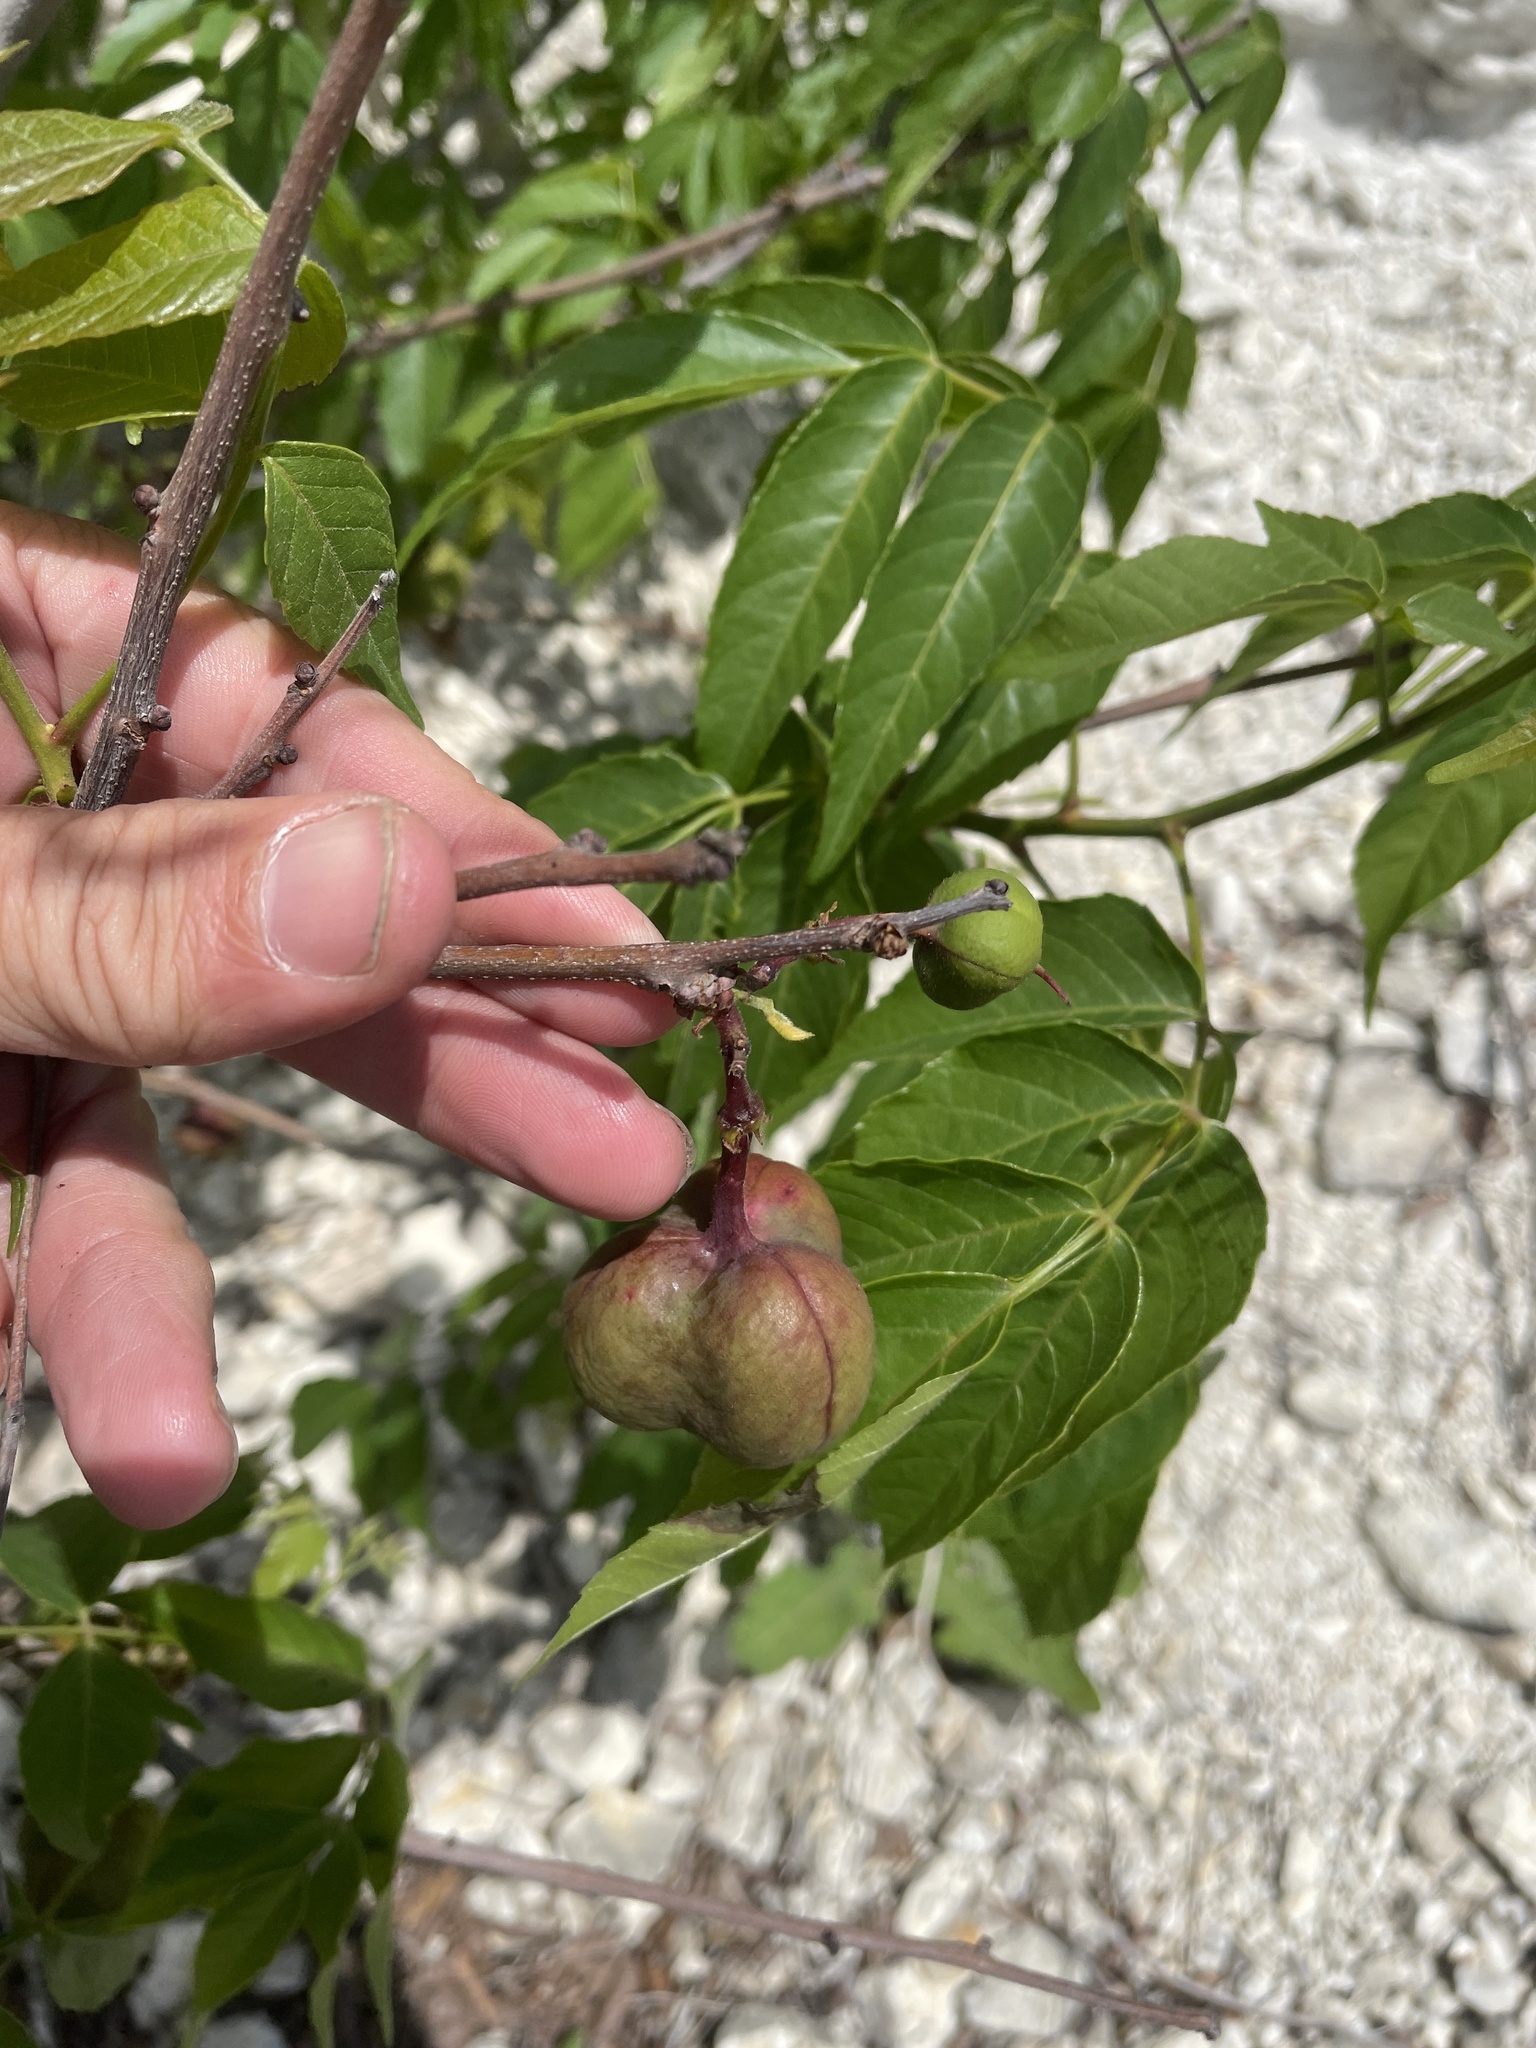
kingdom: Plantae
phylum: Tracheophyta
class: Magnoliopsida
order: Sapindales
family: Sapindaceae
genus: Ungnadia
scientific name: Ungnadia speciosa
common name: Texas-buckeye
